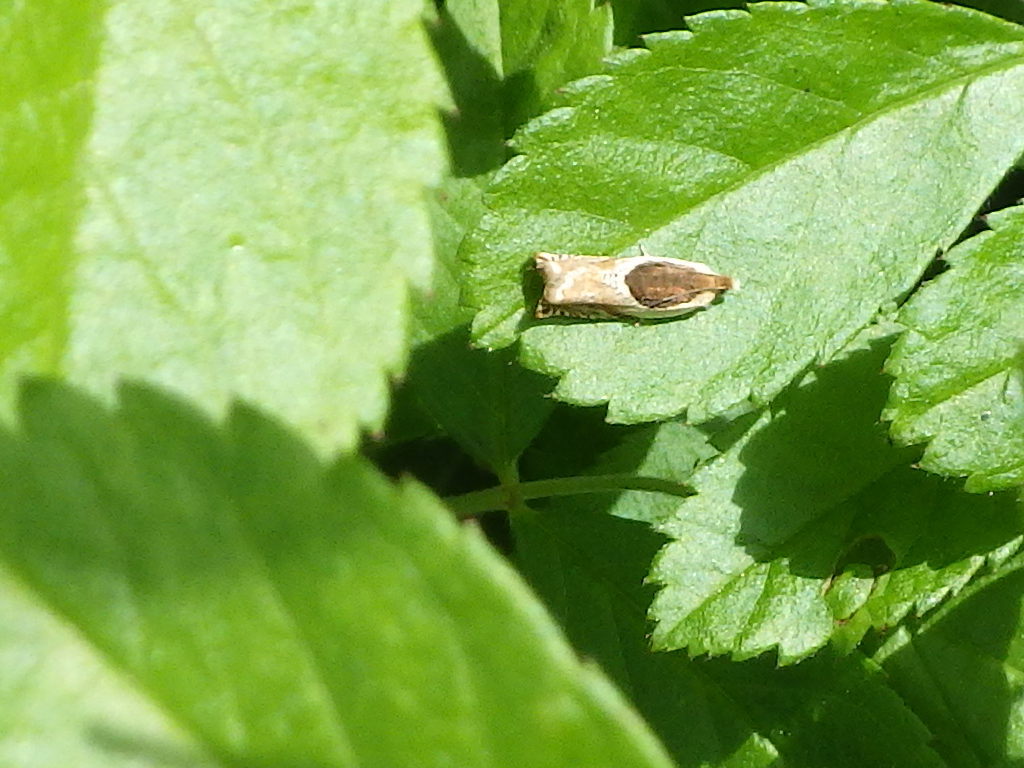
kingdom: Animalia
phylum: Arthropoda
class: Insecta
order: Lepidoptera
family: Tortricidae
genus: Ancylis
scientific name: Ancylis laciniana
